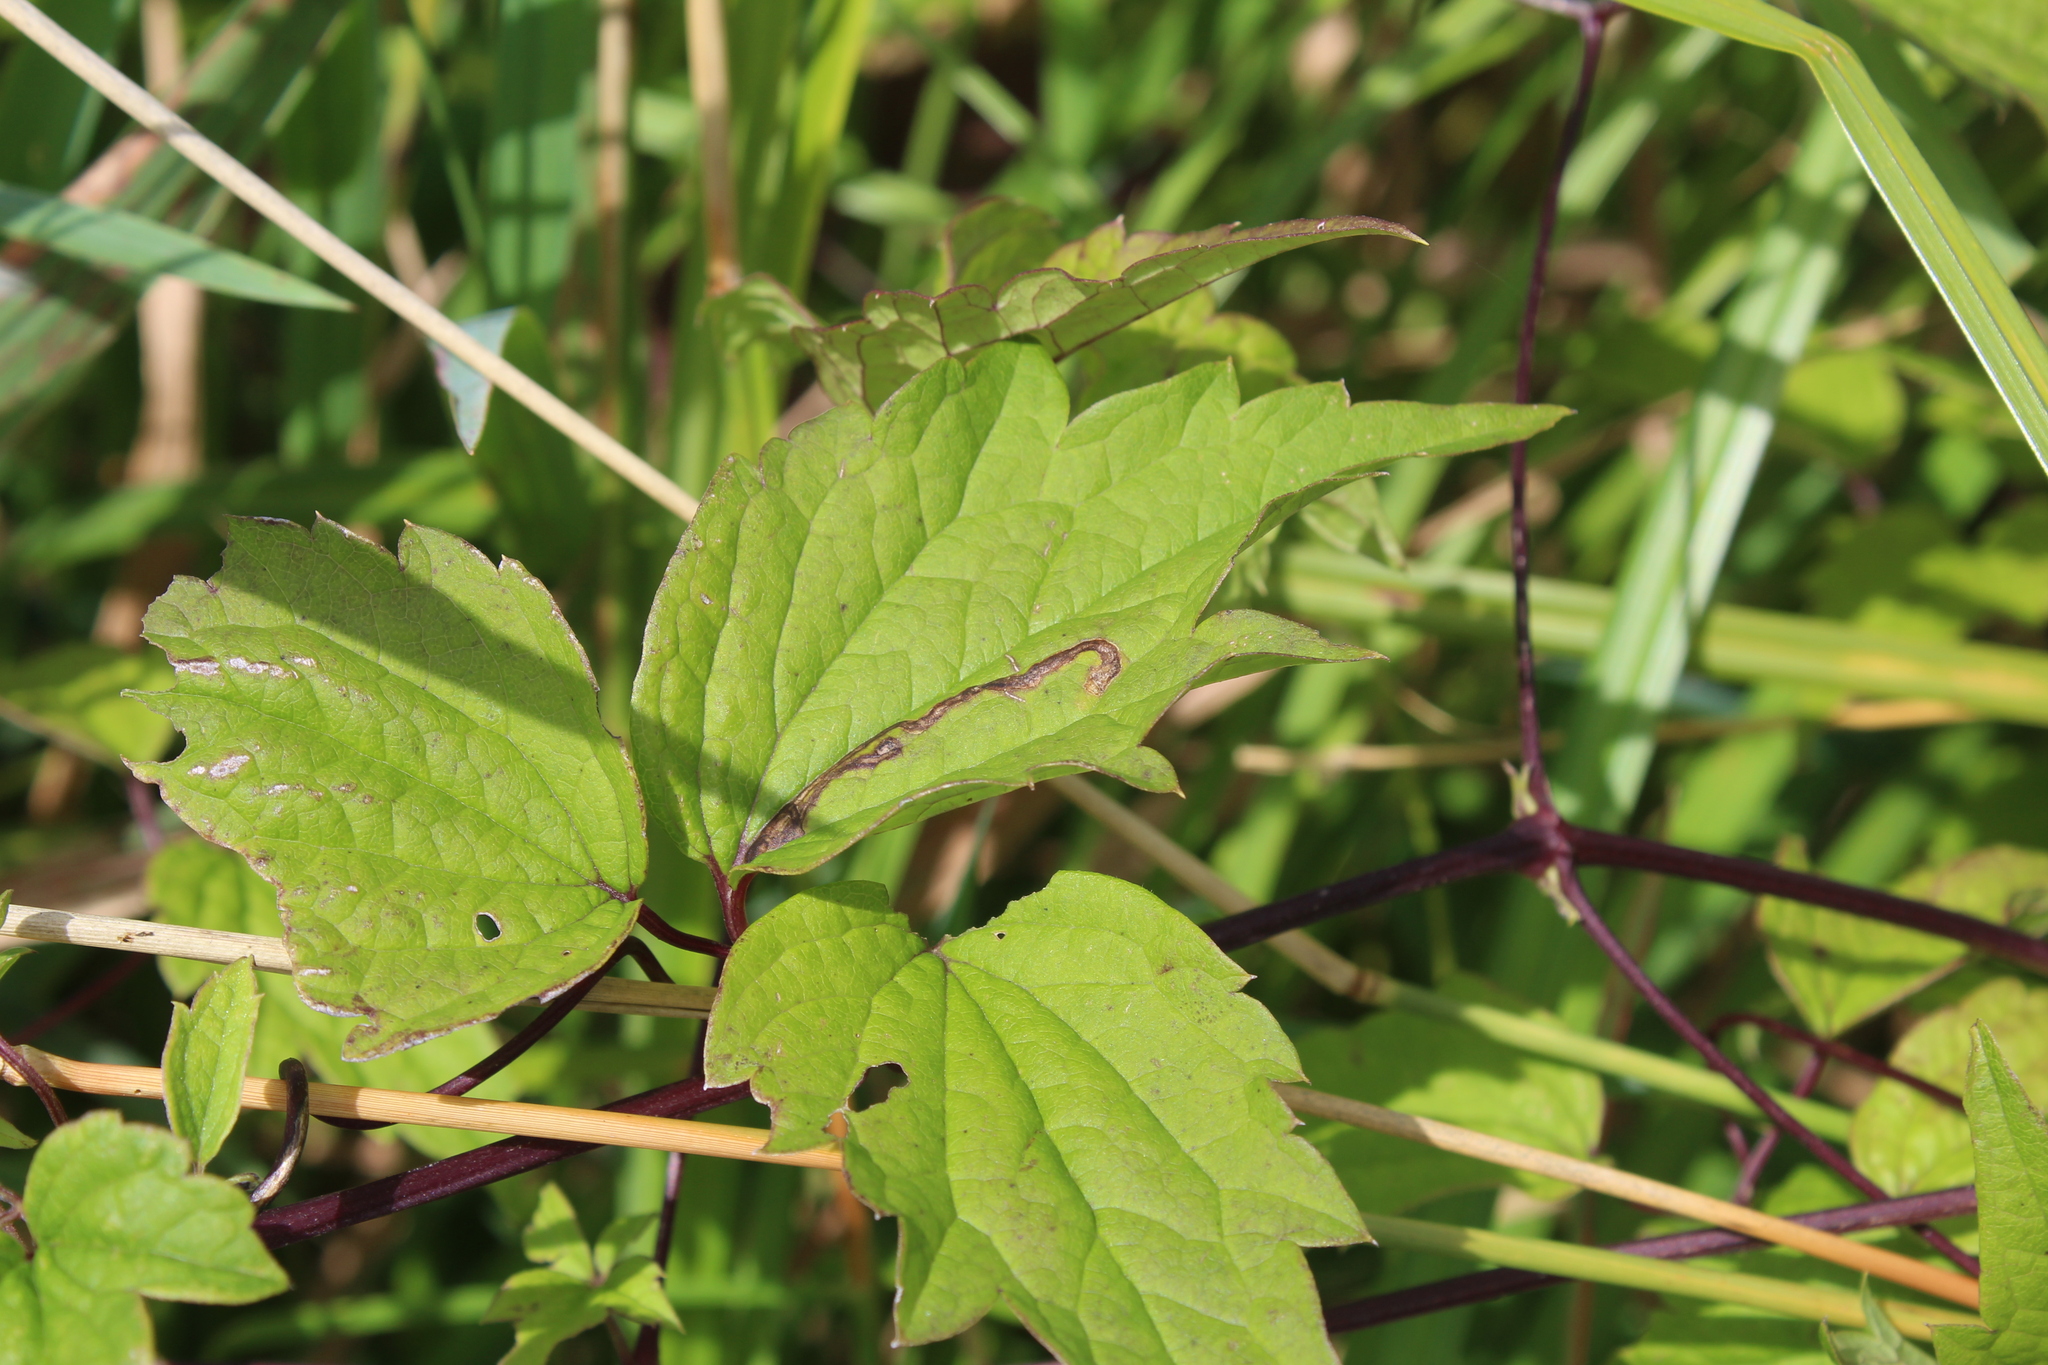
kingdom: Animalia
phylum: Arthropoda
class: Insecta
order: Diptera
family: Agromyzidae
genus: Phytomyza
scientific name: Phytomyza loewii
